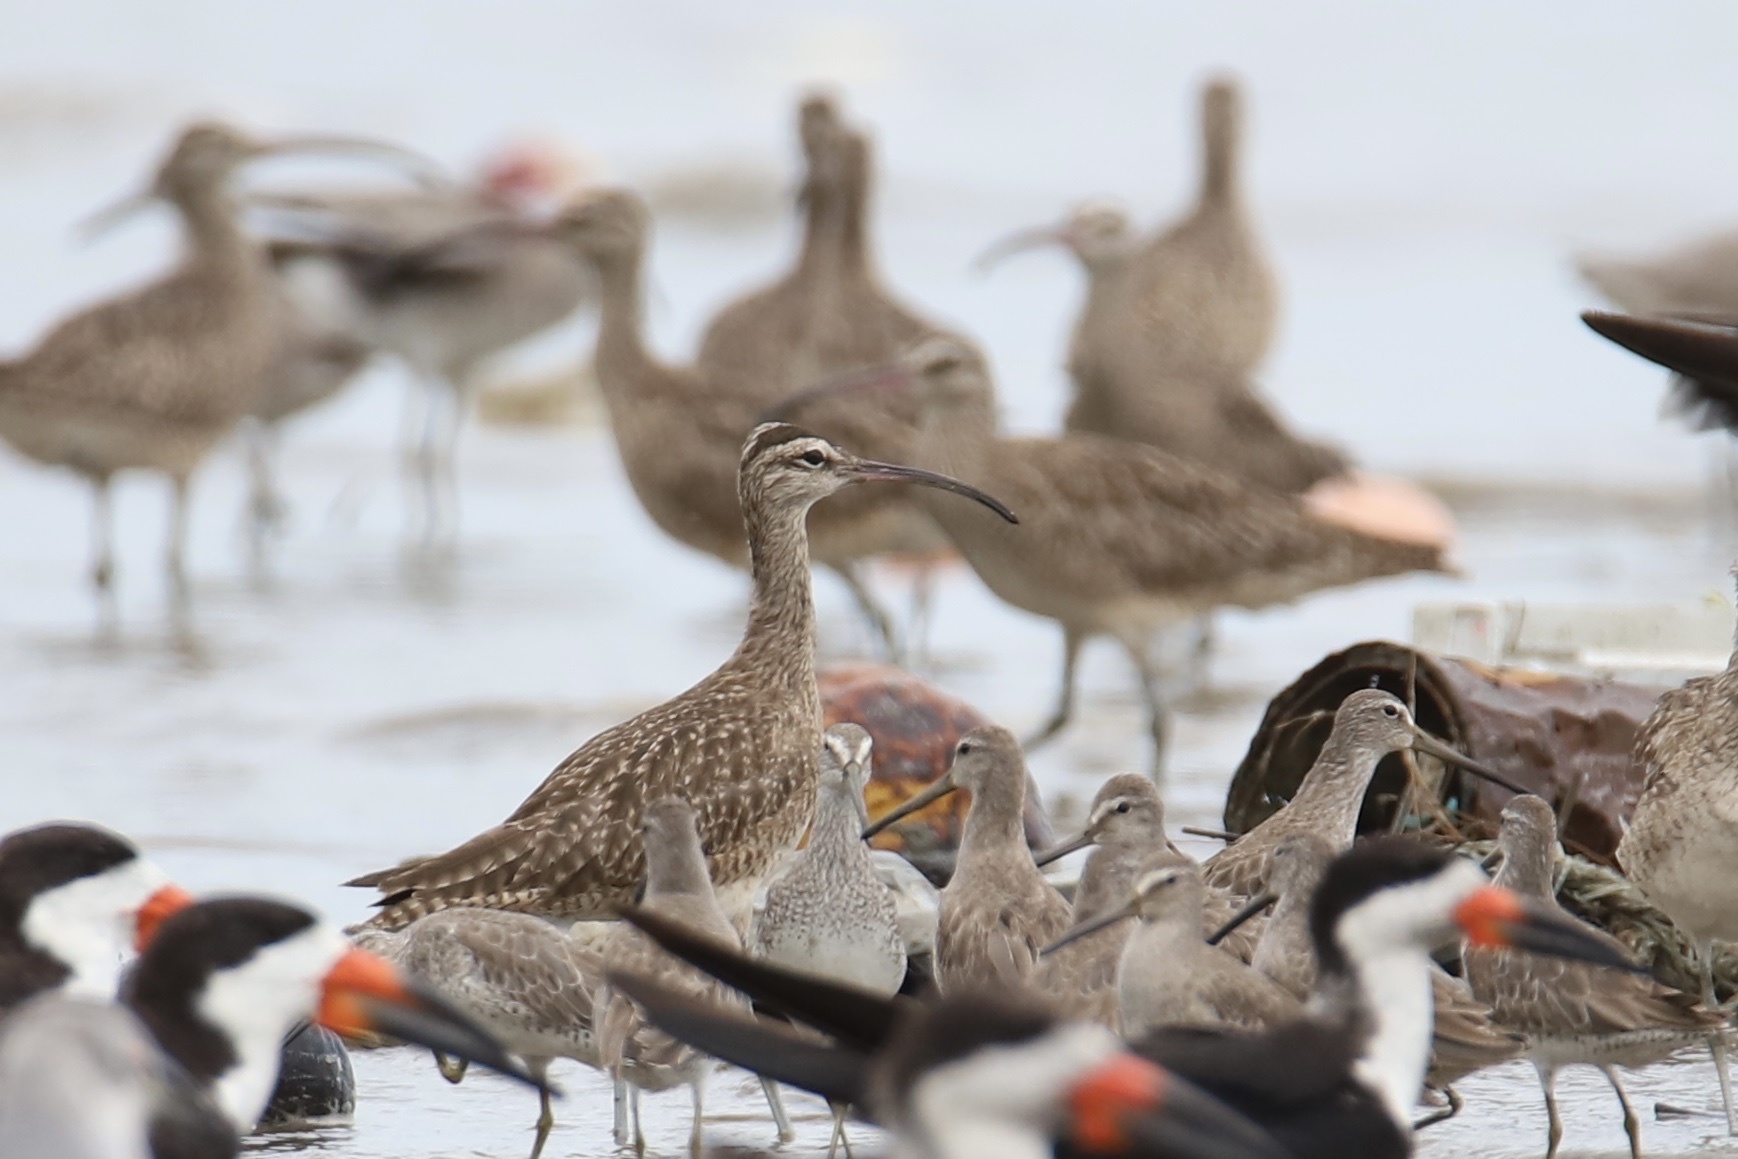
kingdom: Animalia
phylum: Chordata
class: Aves
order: Charadriiformes
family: Scolopacidae
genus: Numenius
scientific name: Numenius phaeopus
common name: Whimbrel
